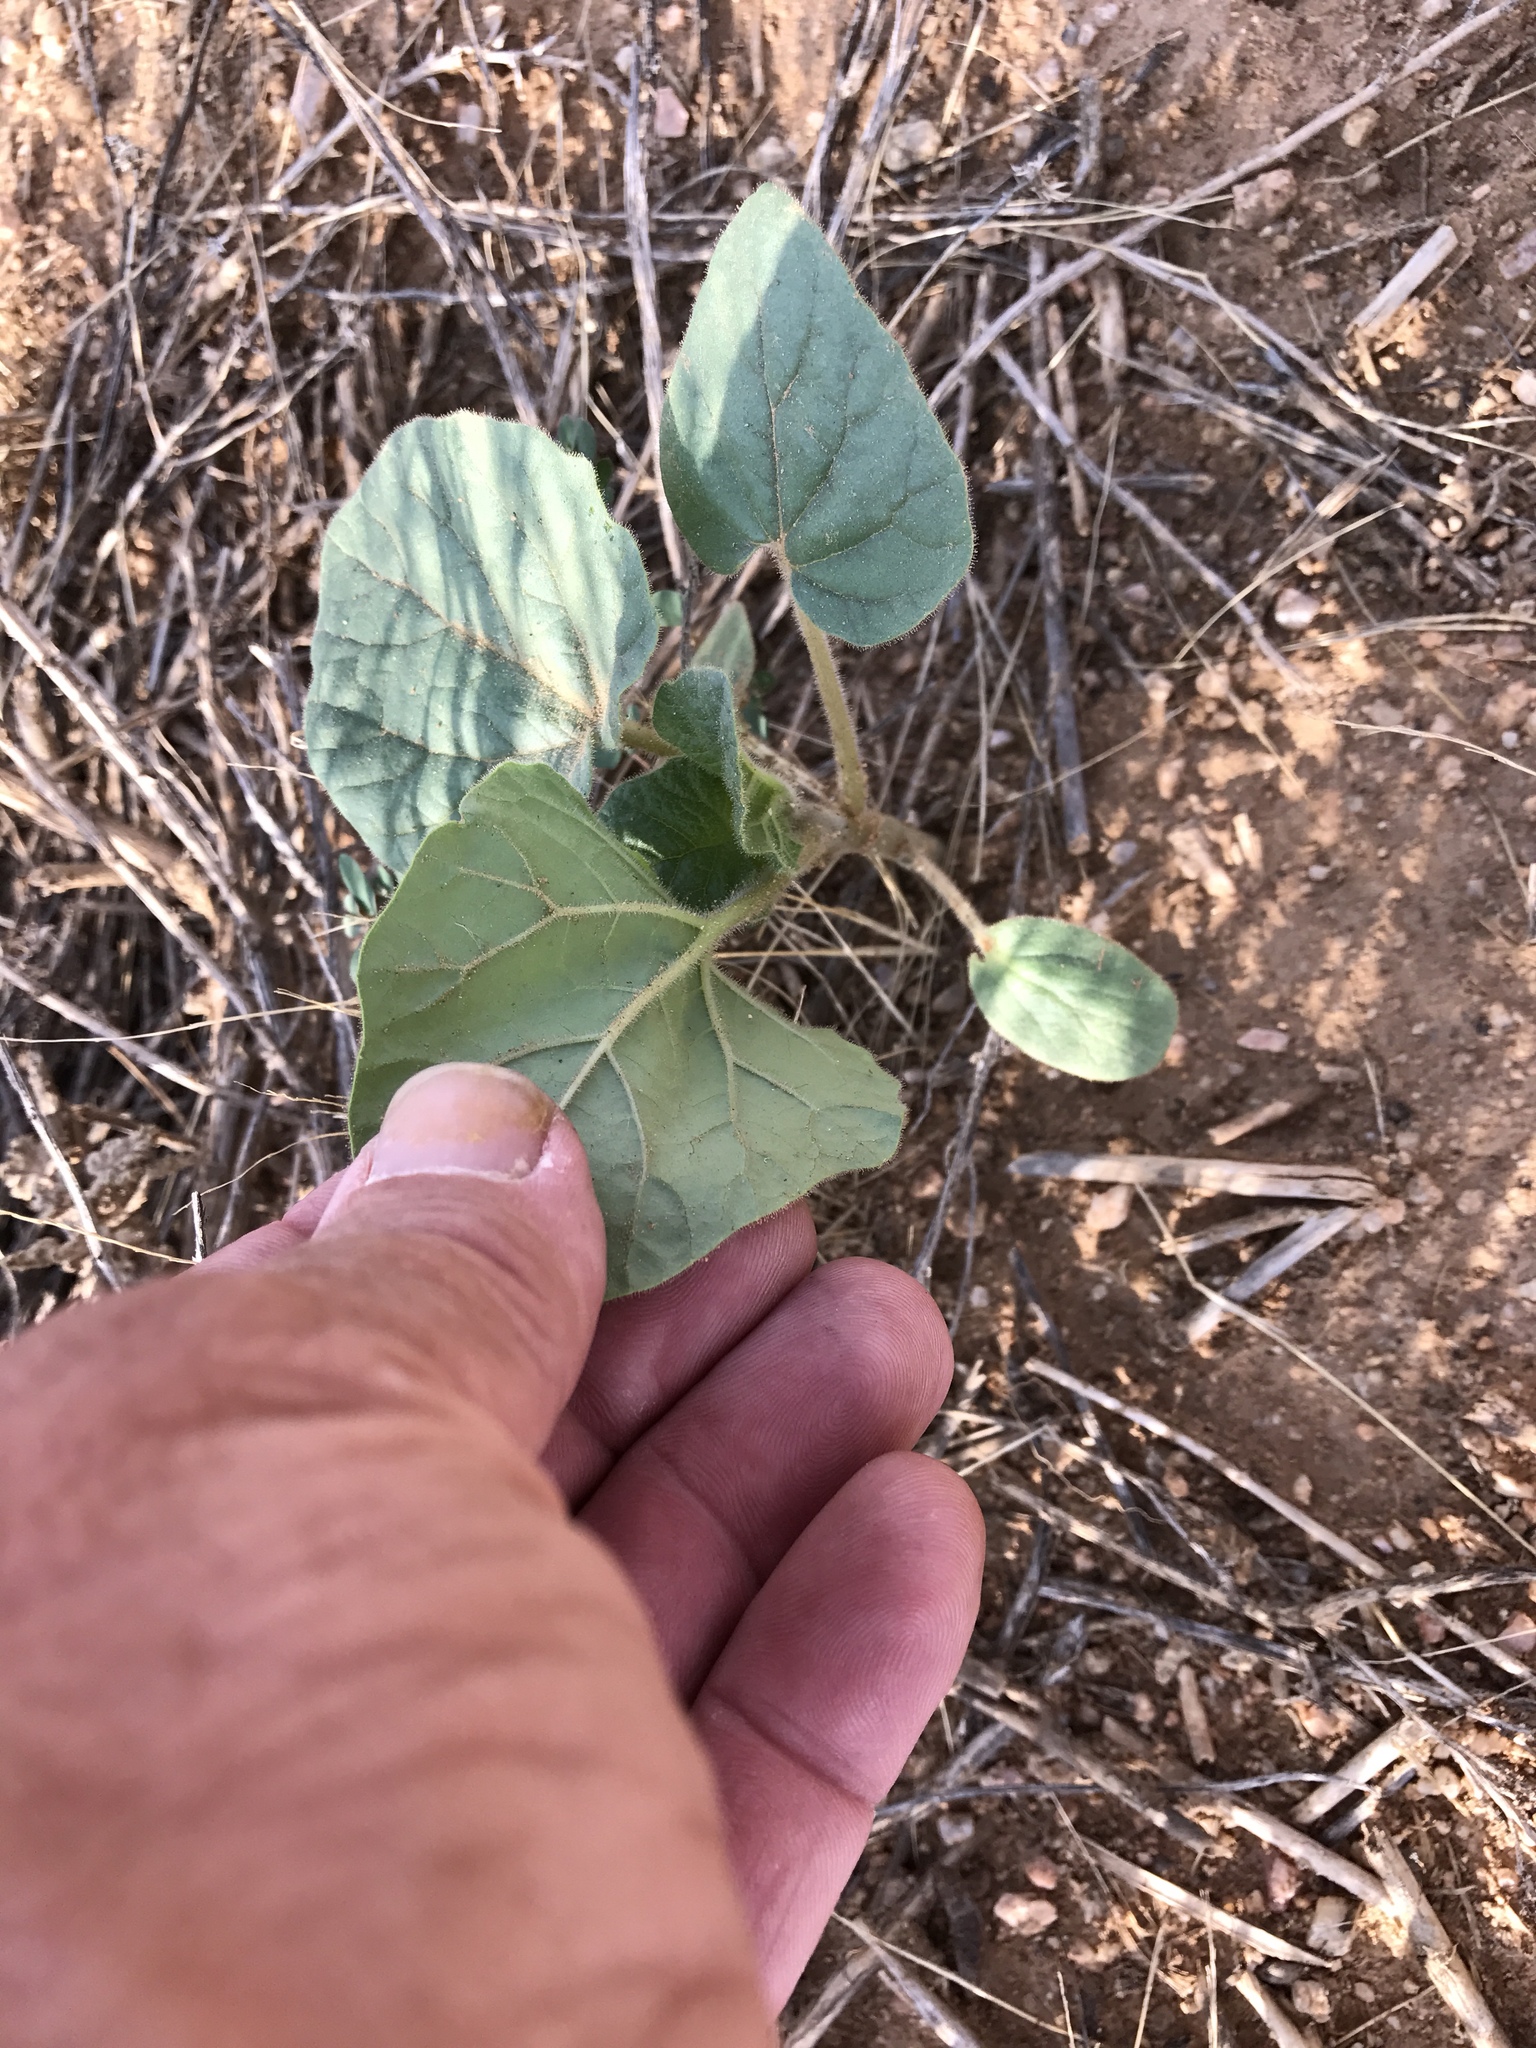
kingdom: Plantae
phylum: Tracheophyta
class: Magnoliopsida
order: Lamiales
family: Martyniaceae
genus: Proboscidea
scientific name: Proboscidea althaeifolia
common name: Desert unicorn-plant
